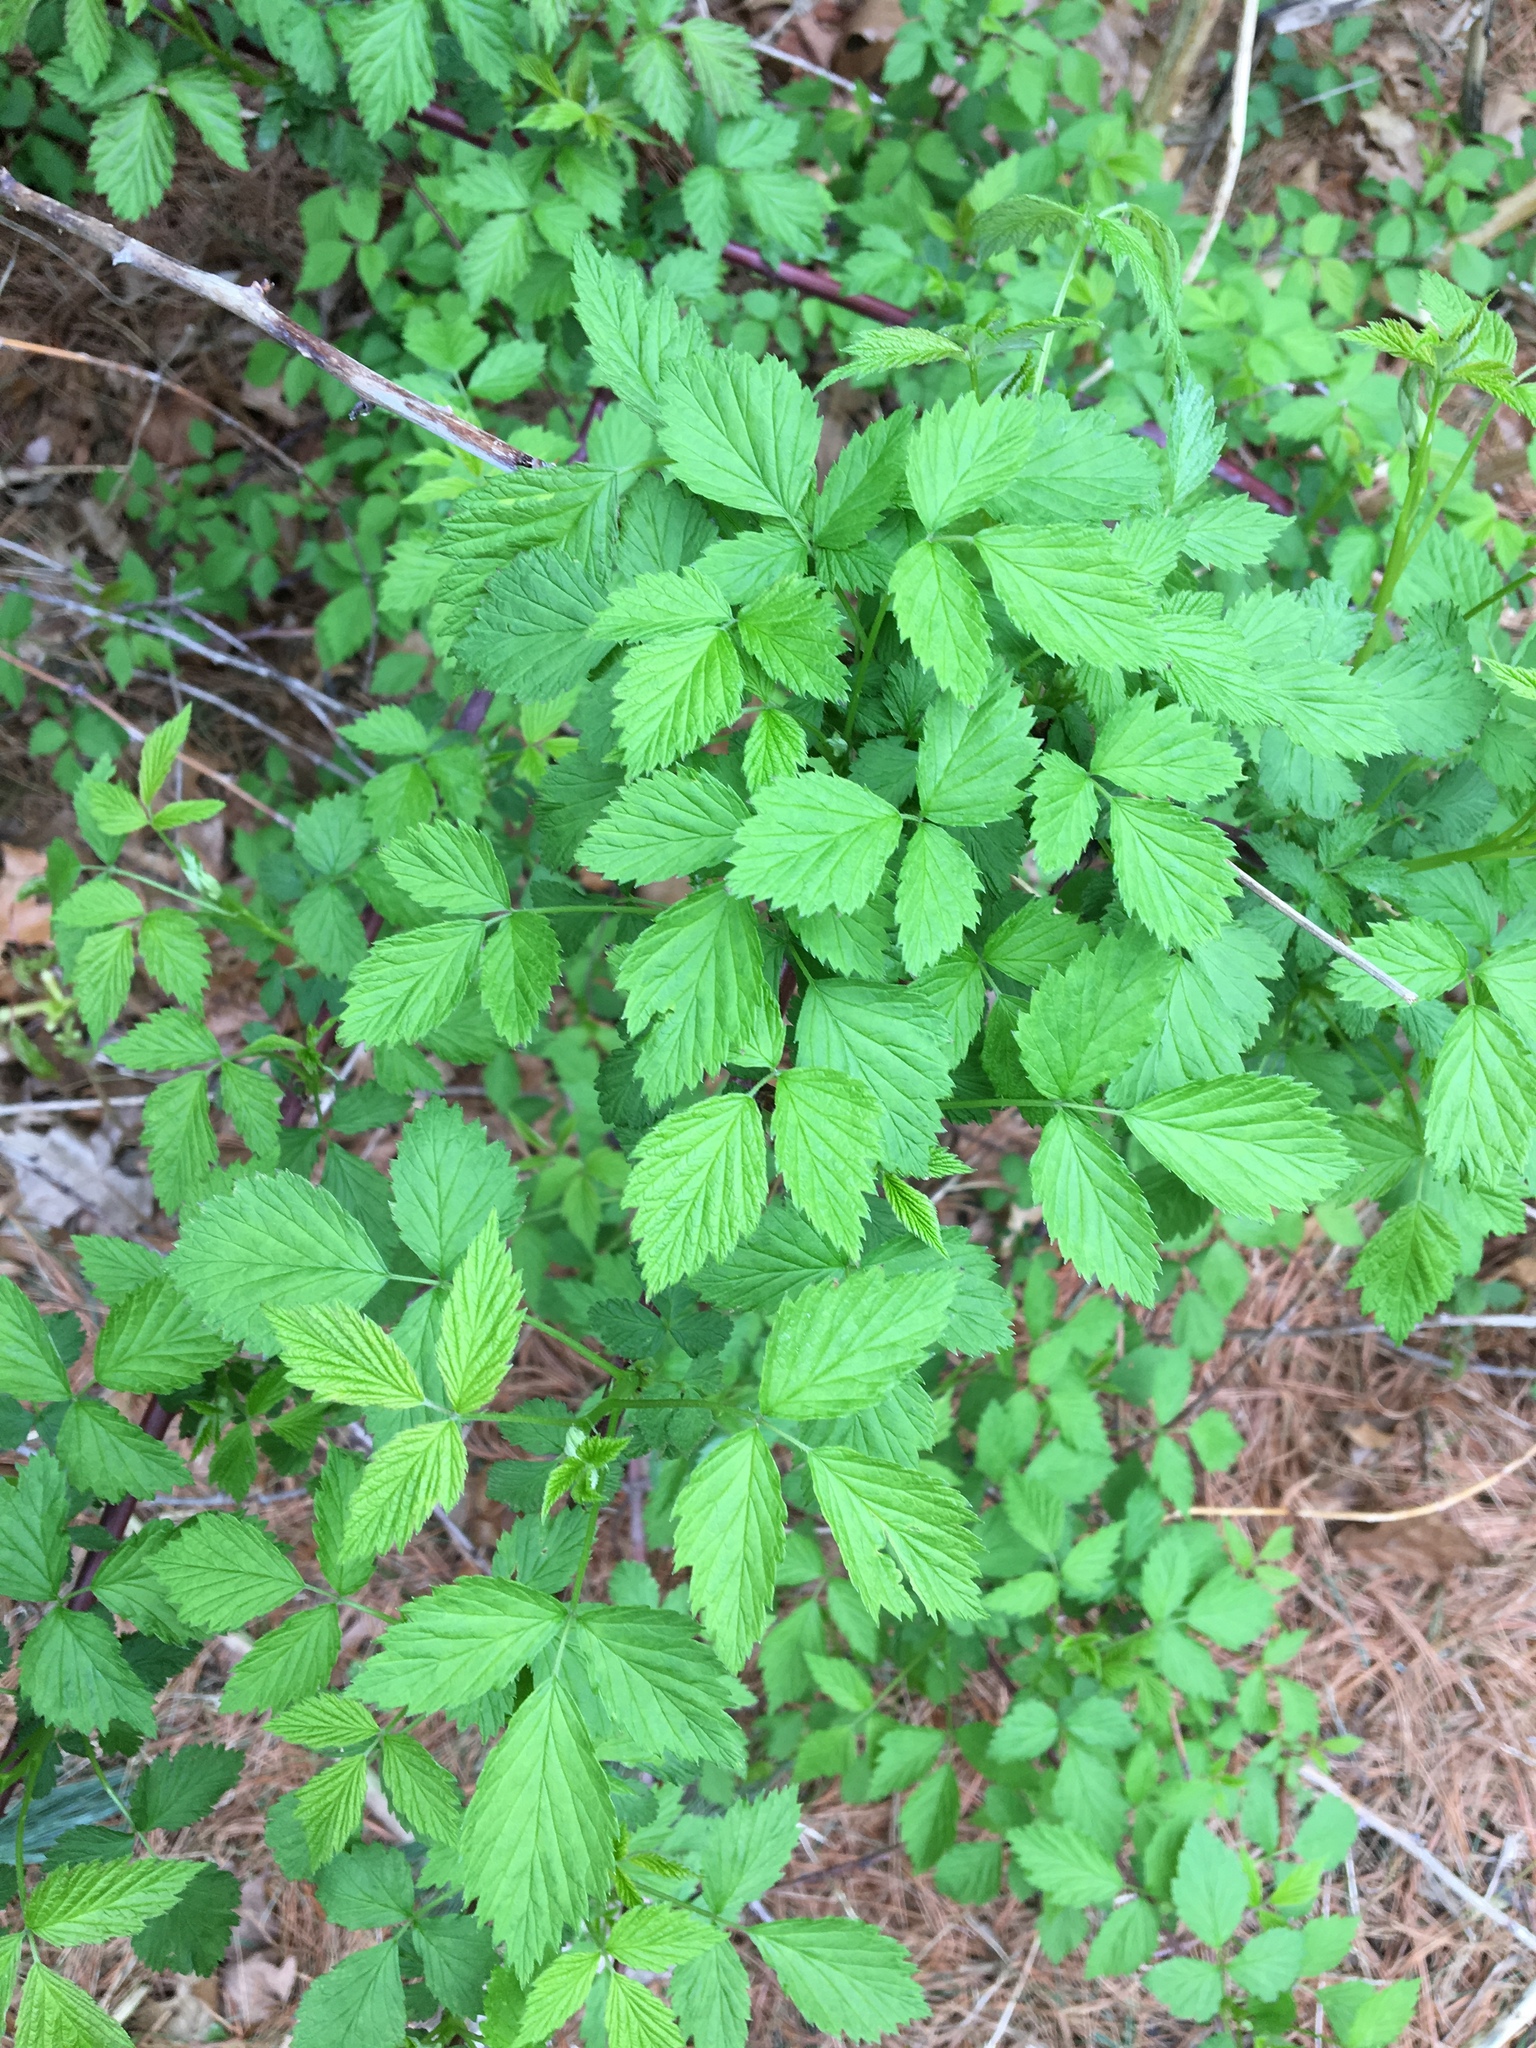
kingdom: Plantae
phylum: Tracheophyta
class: Magnoliopsida
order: Rosales
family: Rosaceae
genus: Rubus
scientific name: Rubus
